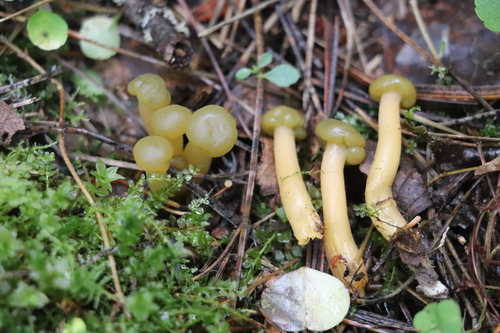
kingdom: Fungi
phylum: Ascomycota
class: Leotiomycetes
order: Leotiales
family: Leotiaceae
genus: Leotia
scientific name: Leotia lubrica
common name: Jellybaby
